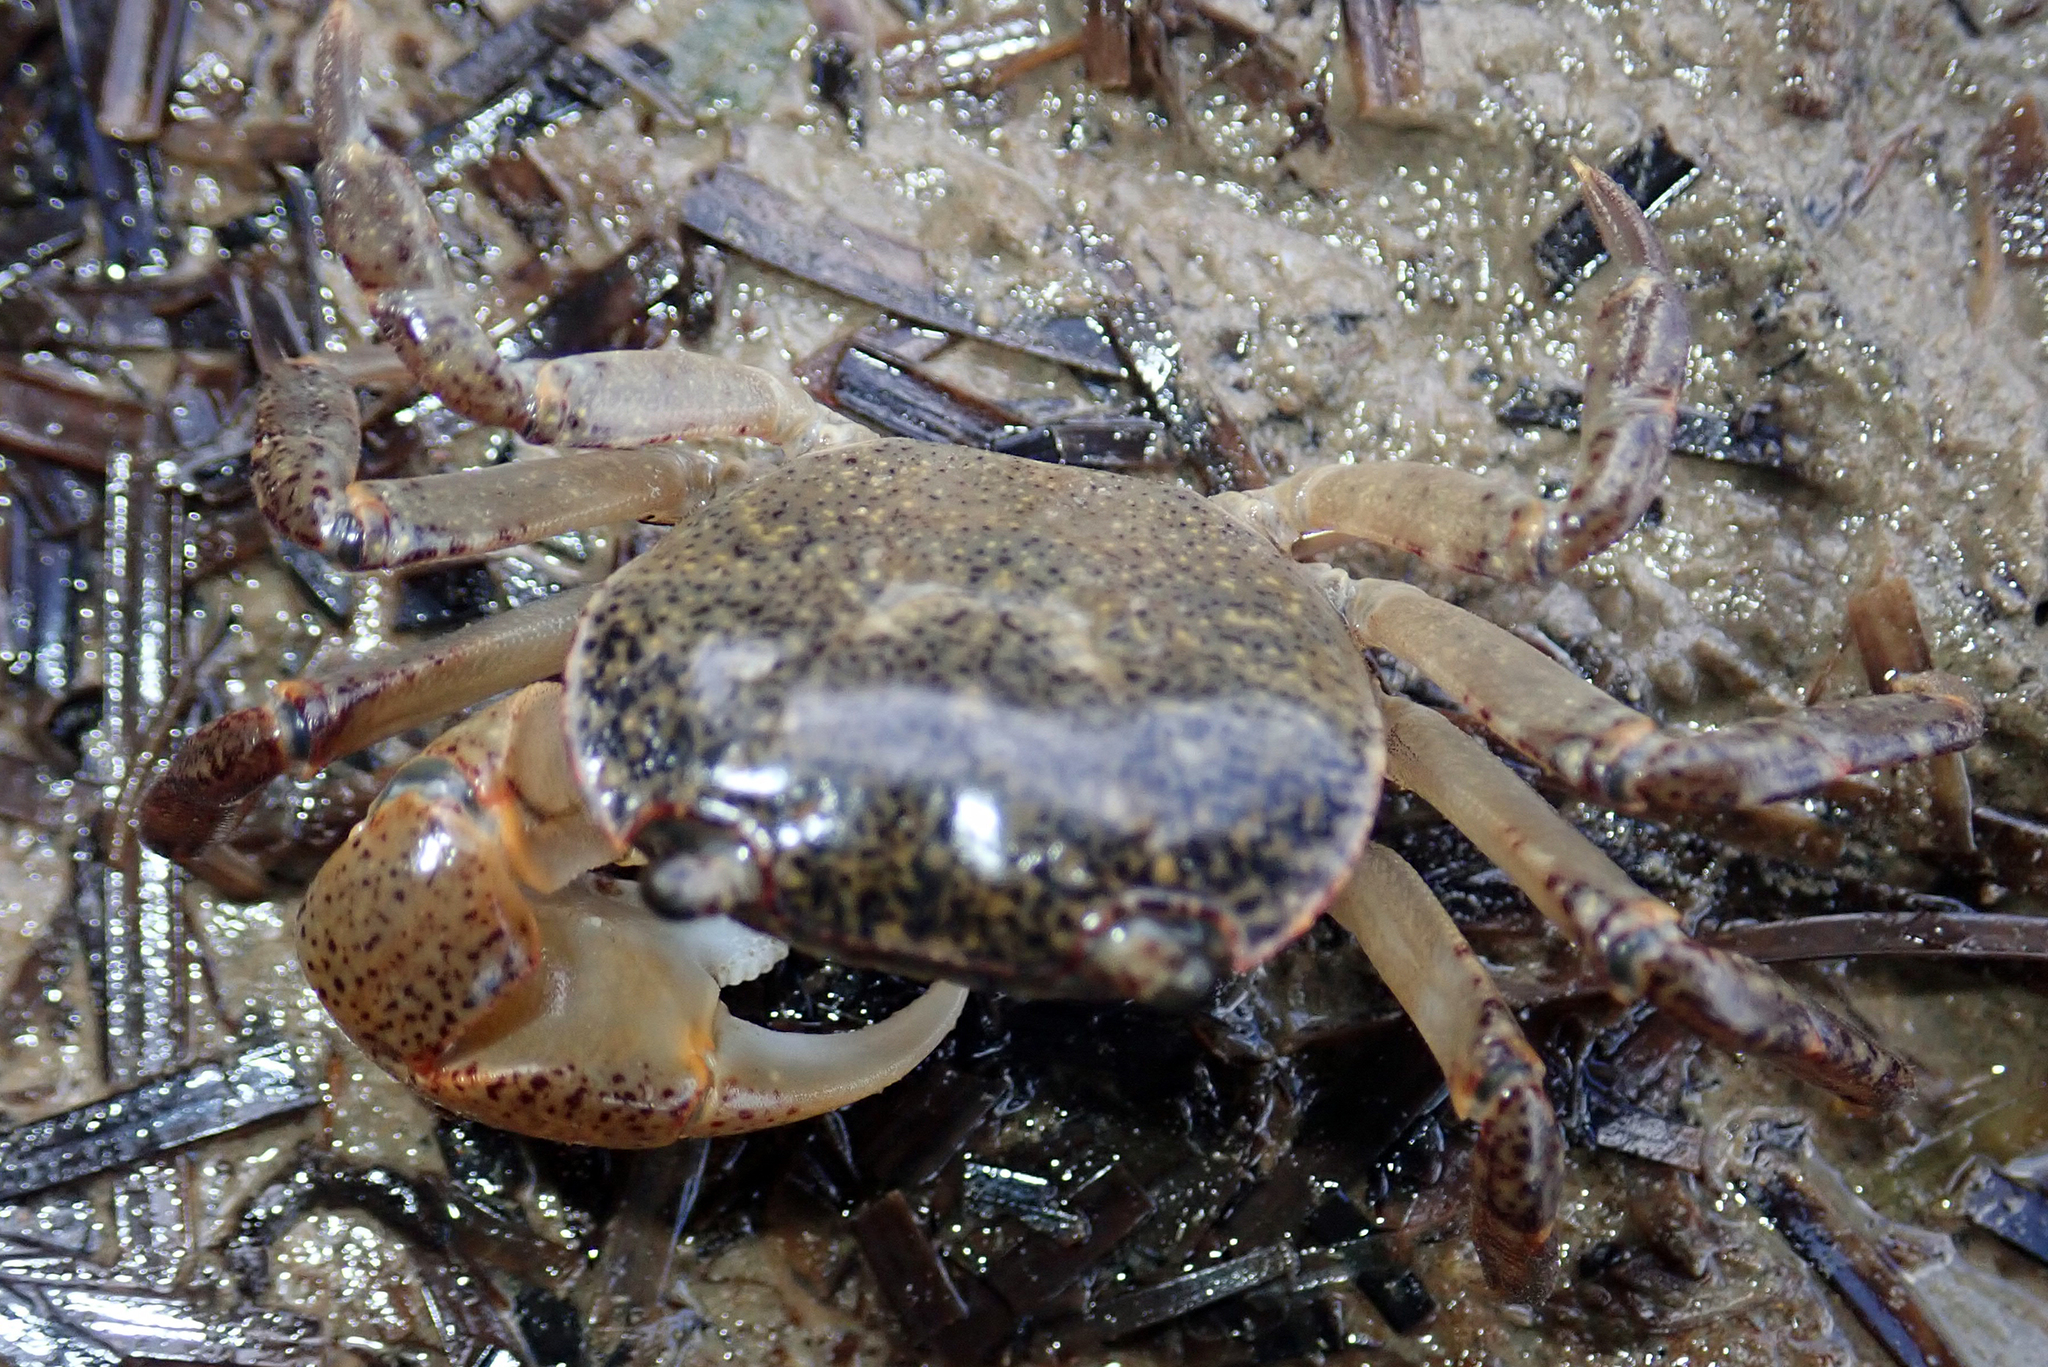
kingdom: Animalia
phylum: Arthropoda
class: Malacostraca
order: Decapoda
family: Varunidae
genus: Cyclograpsus
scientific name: Cyclograpsus lavauxi
